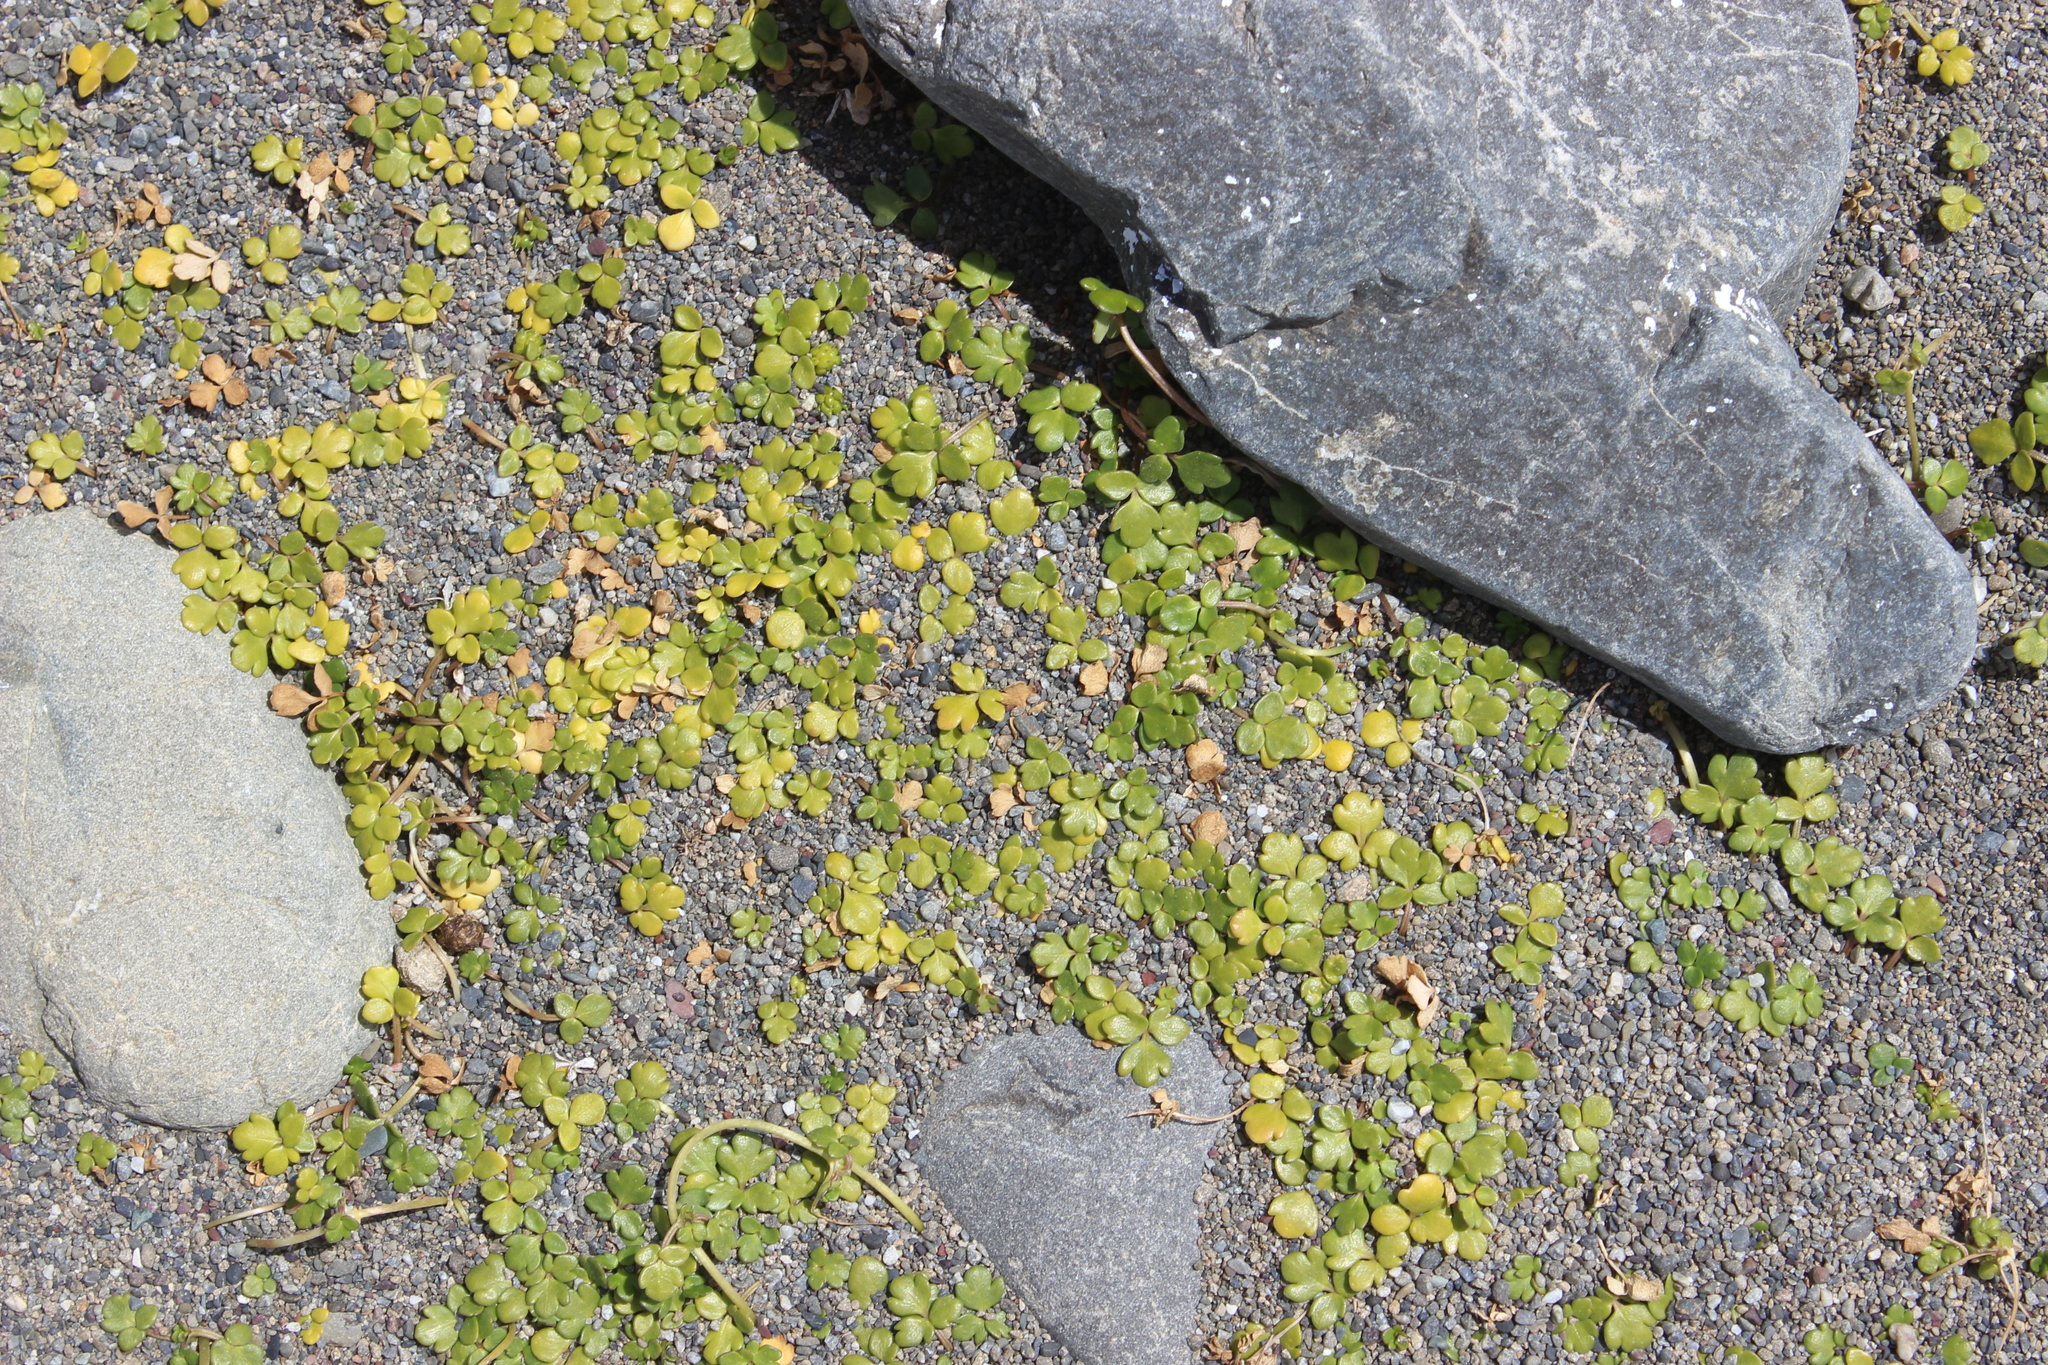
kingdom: Plantae
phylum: Tracheophyta
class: Magnoliopsida
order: Ranunculales
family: Ranunculaceae
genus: Ranunculus
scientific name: Ranunculus acaulis
